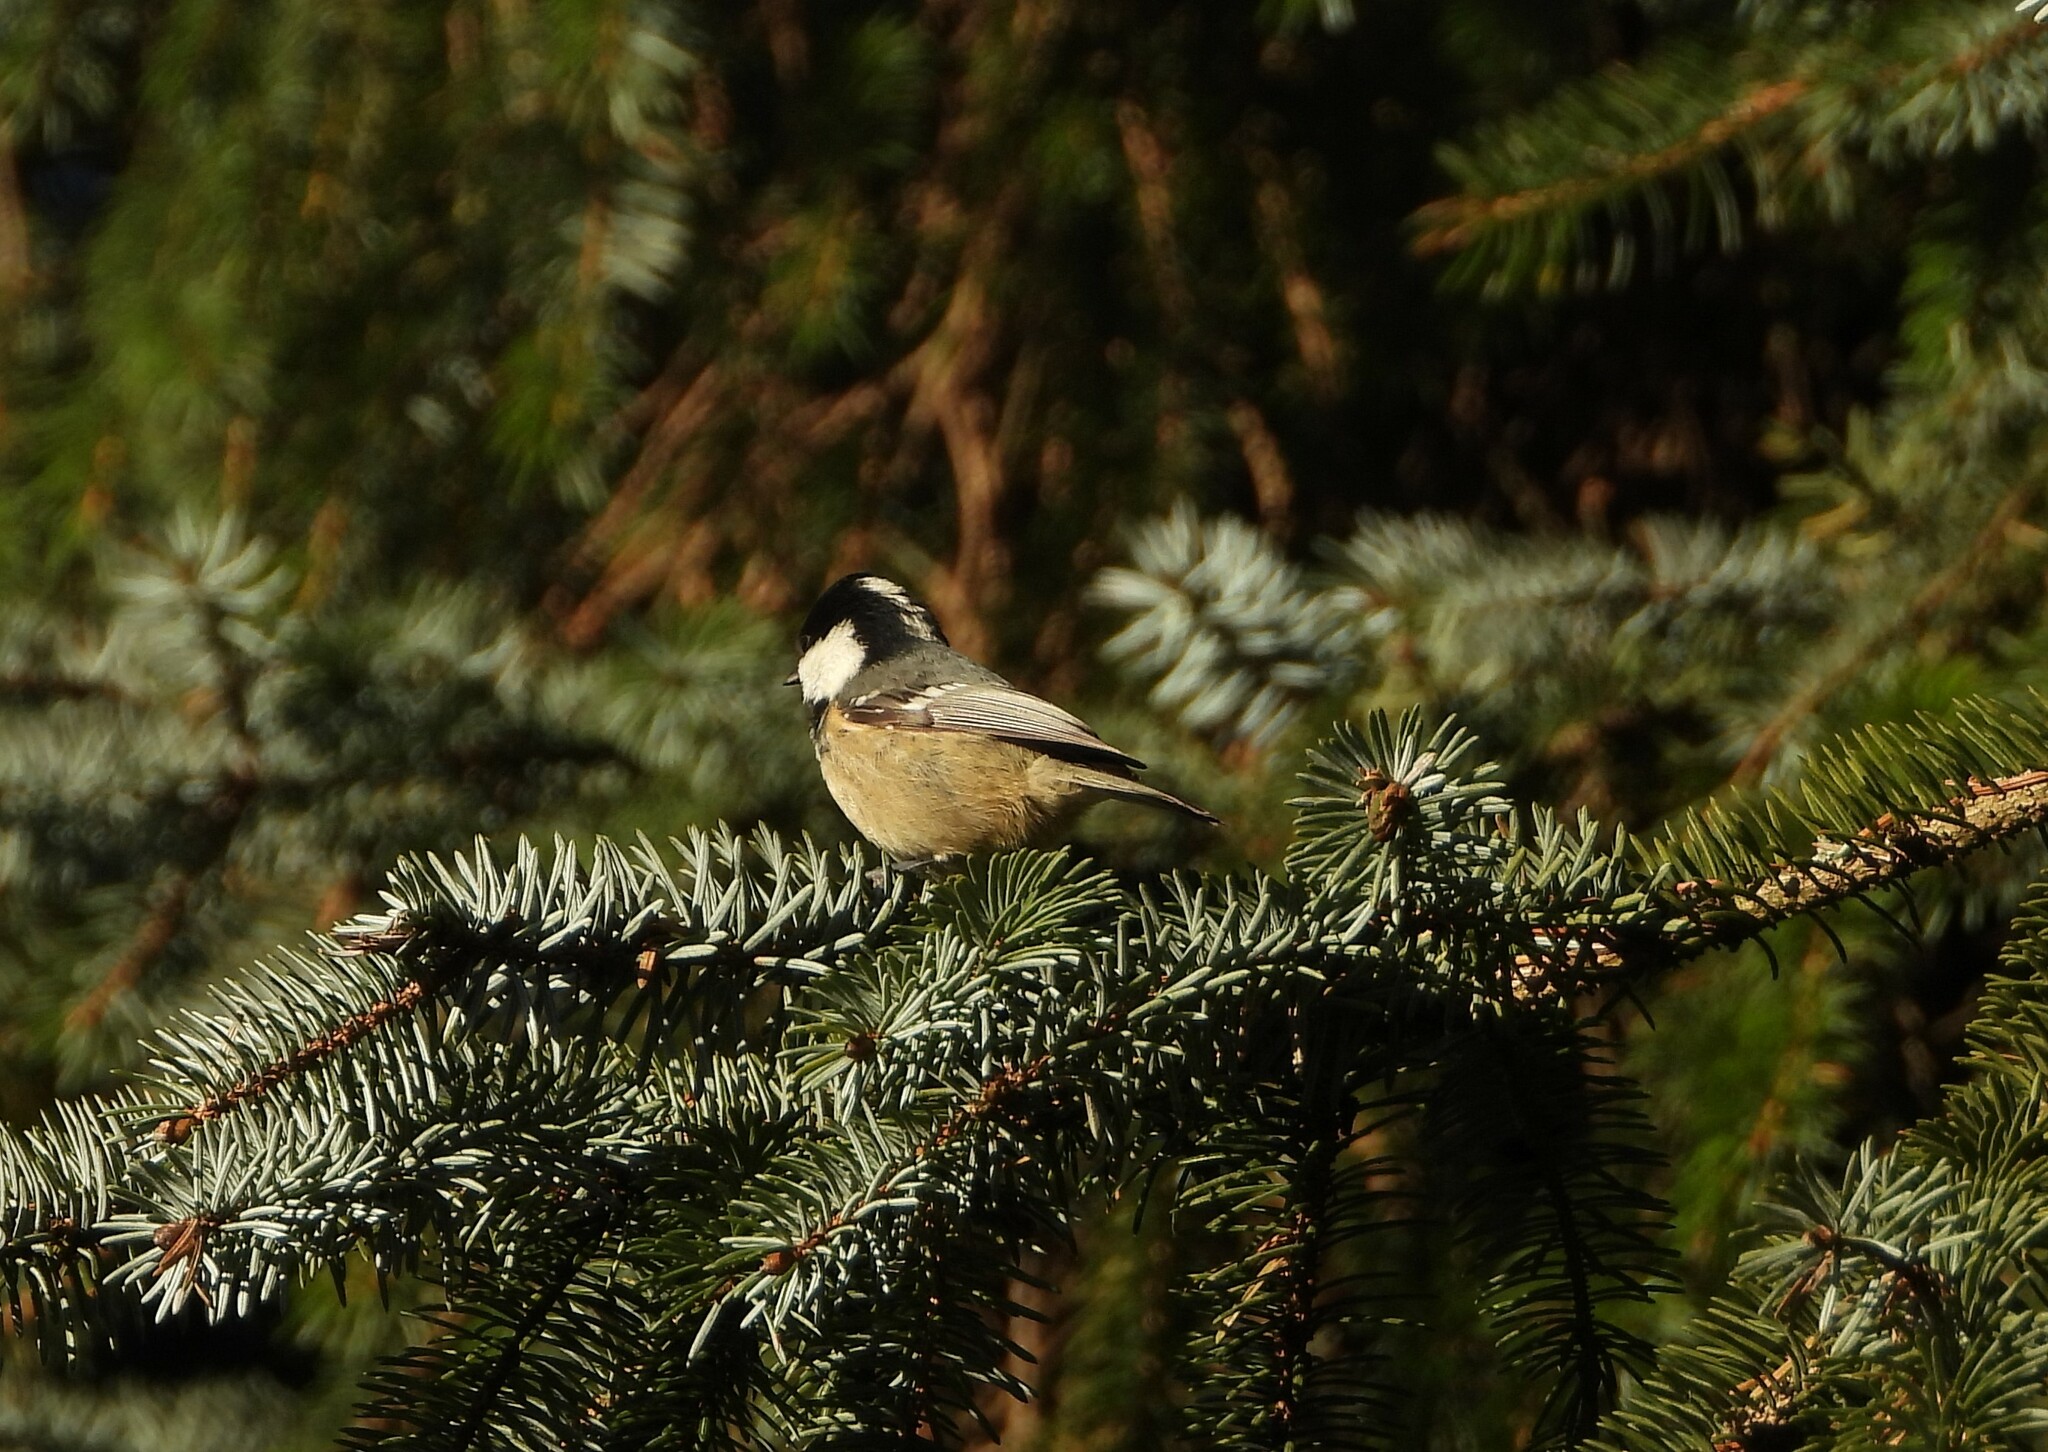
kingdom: Animalia
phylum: Chordata
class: Aves
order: Passeriformes
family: Paridae
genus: Periparus
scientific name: Periparus ater
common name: Coal tit
